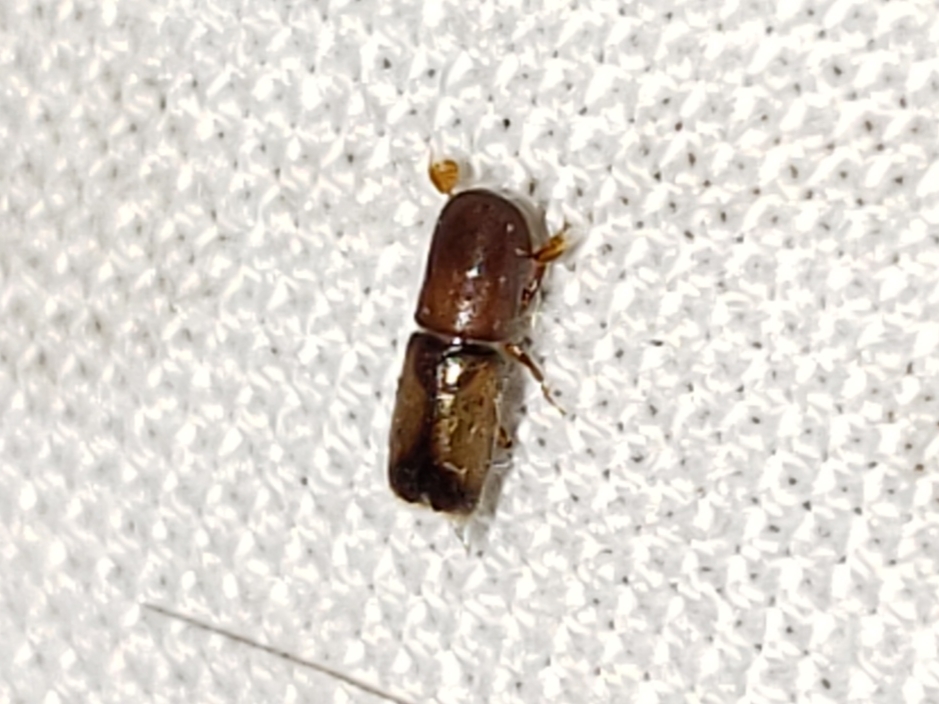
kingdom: Animalia
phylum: Arthropoda
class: Insecta
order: Coleoptera
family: Curculionidae
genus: Monarthrum
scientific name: Monarthrum fasciatum
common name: Yellow-banded timber beetle
